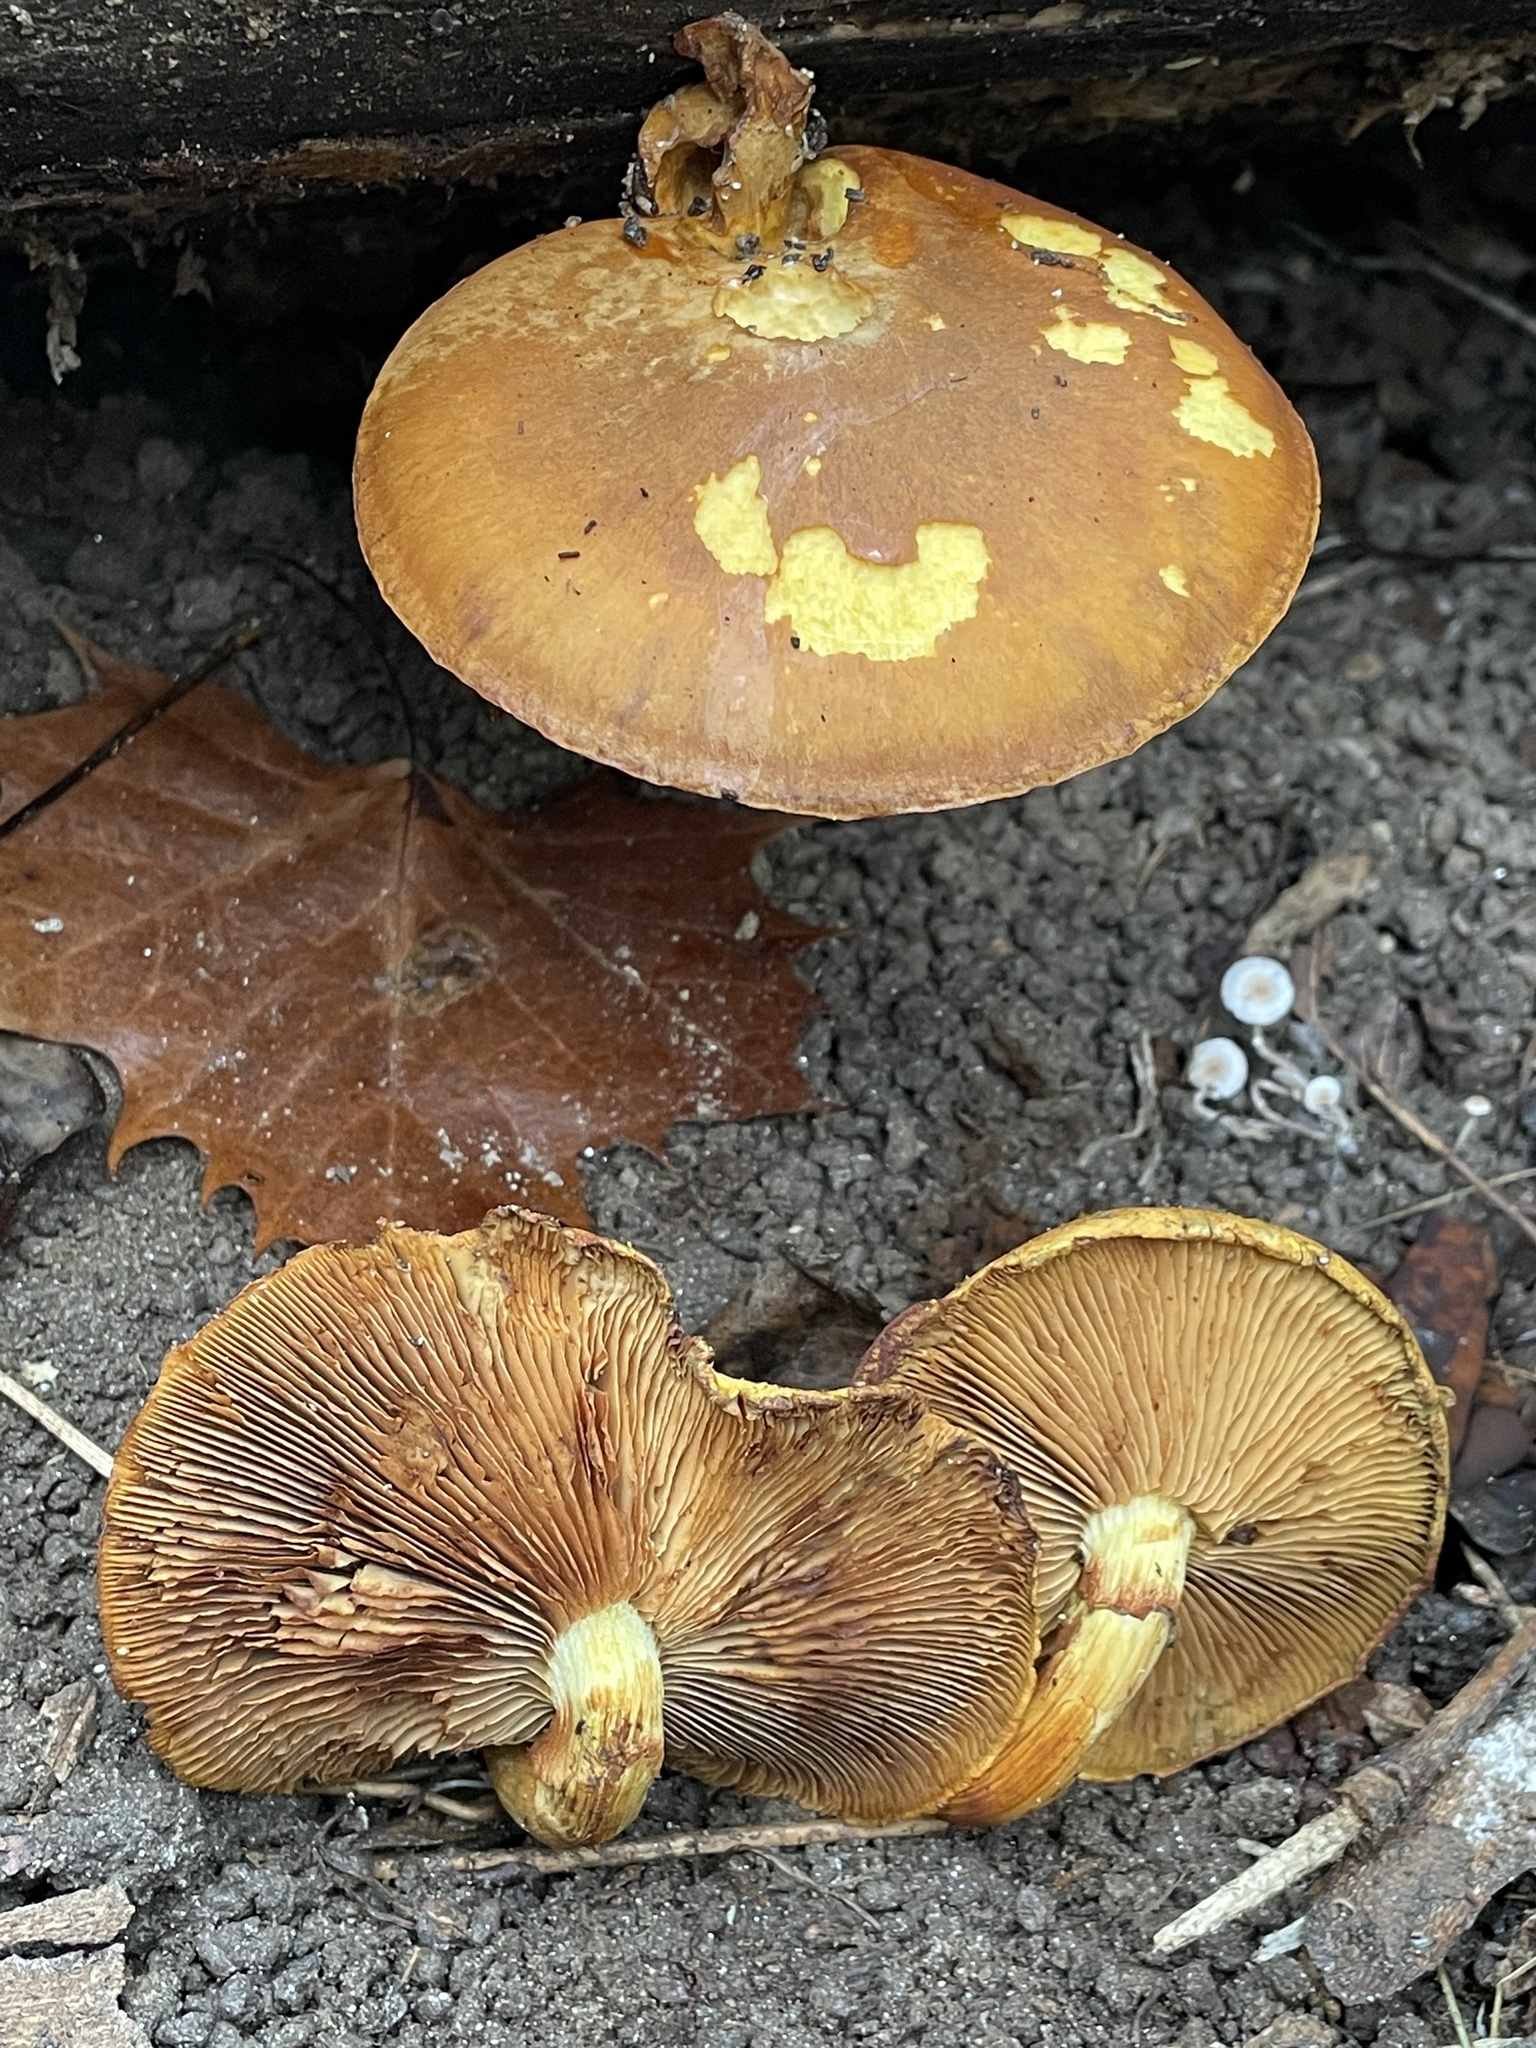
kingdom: Fungi
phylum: Basidiomycota
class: Agaricomycetes
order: Agaricales
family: Hymenogastraceae
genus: Gymnopilus
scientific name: Gymnopilus luteus
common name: Yellow gymnopilus
